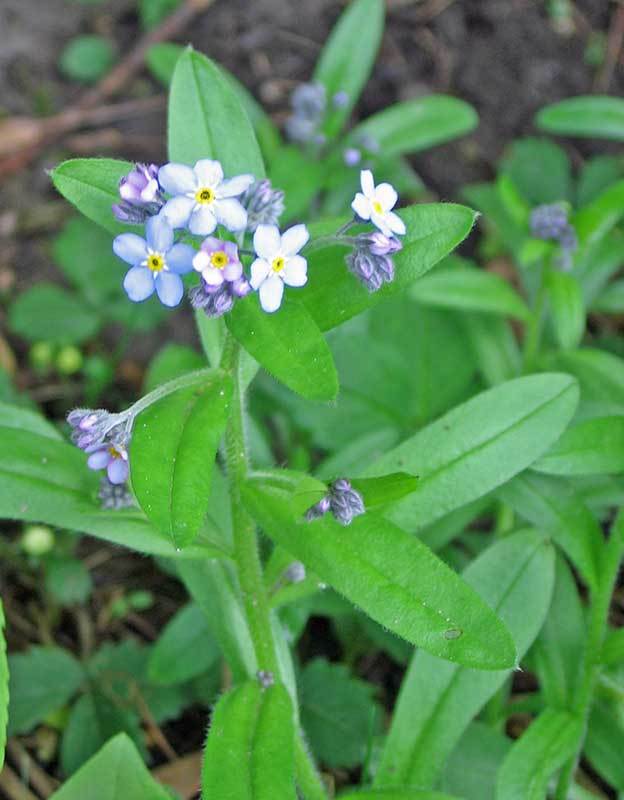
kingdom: Plantae
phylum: Tracheophyta
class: Magnoliopsida
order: Boraginales
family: Boraginaceae
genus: Myosotis
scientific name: Myosotis sylvatica
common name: Wood forget-me-not
